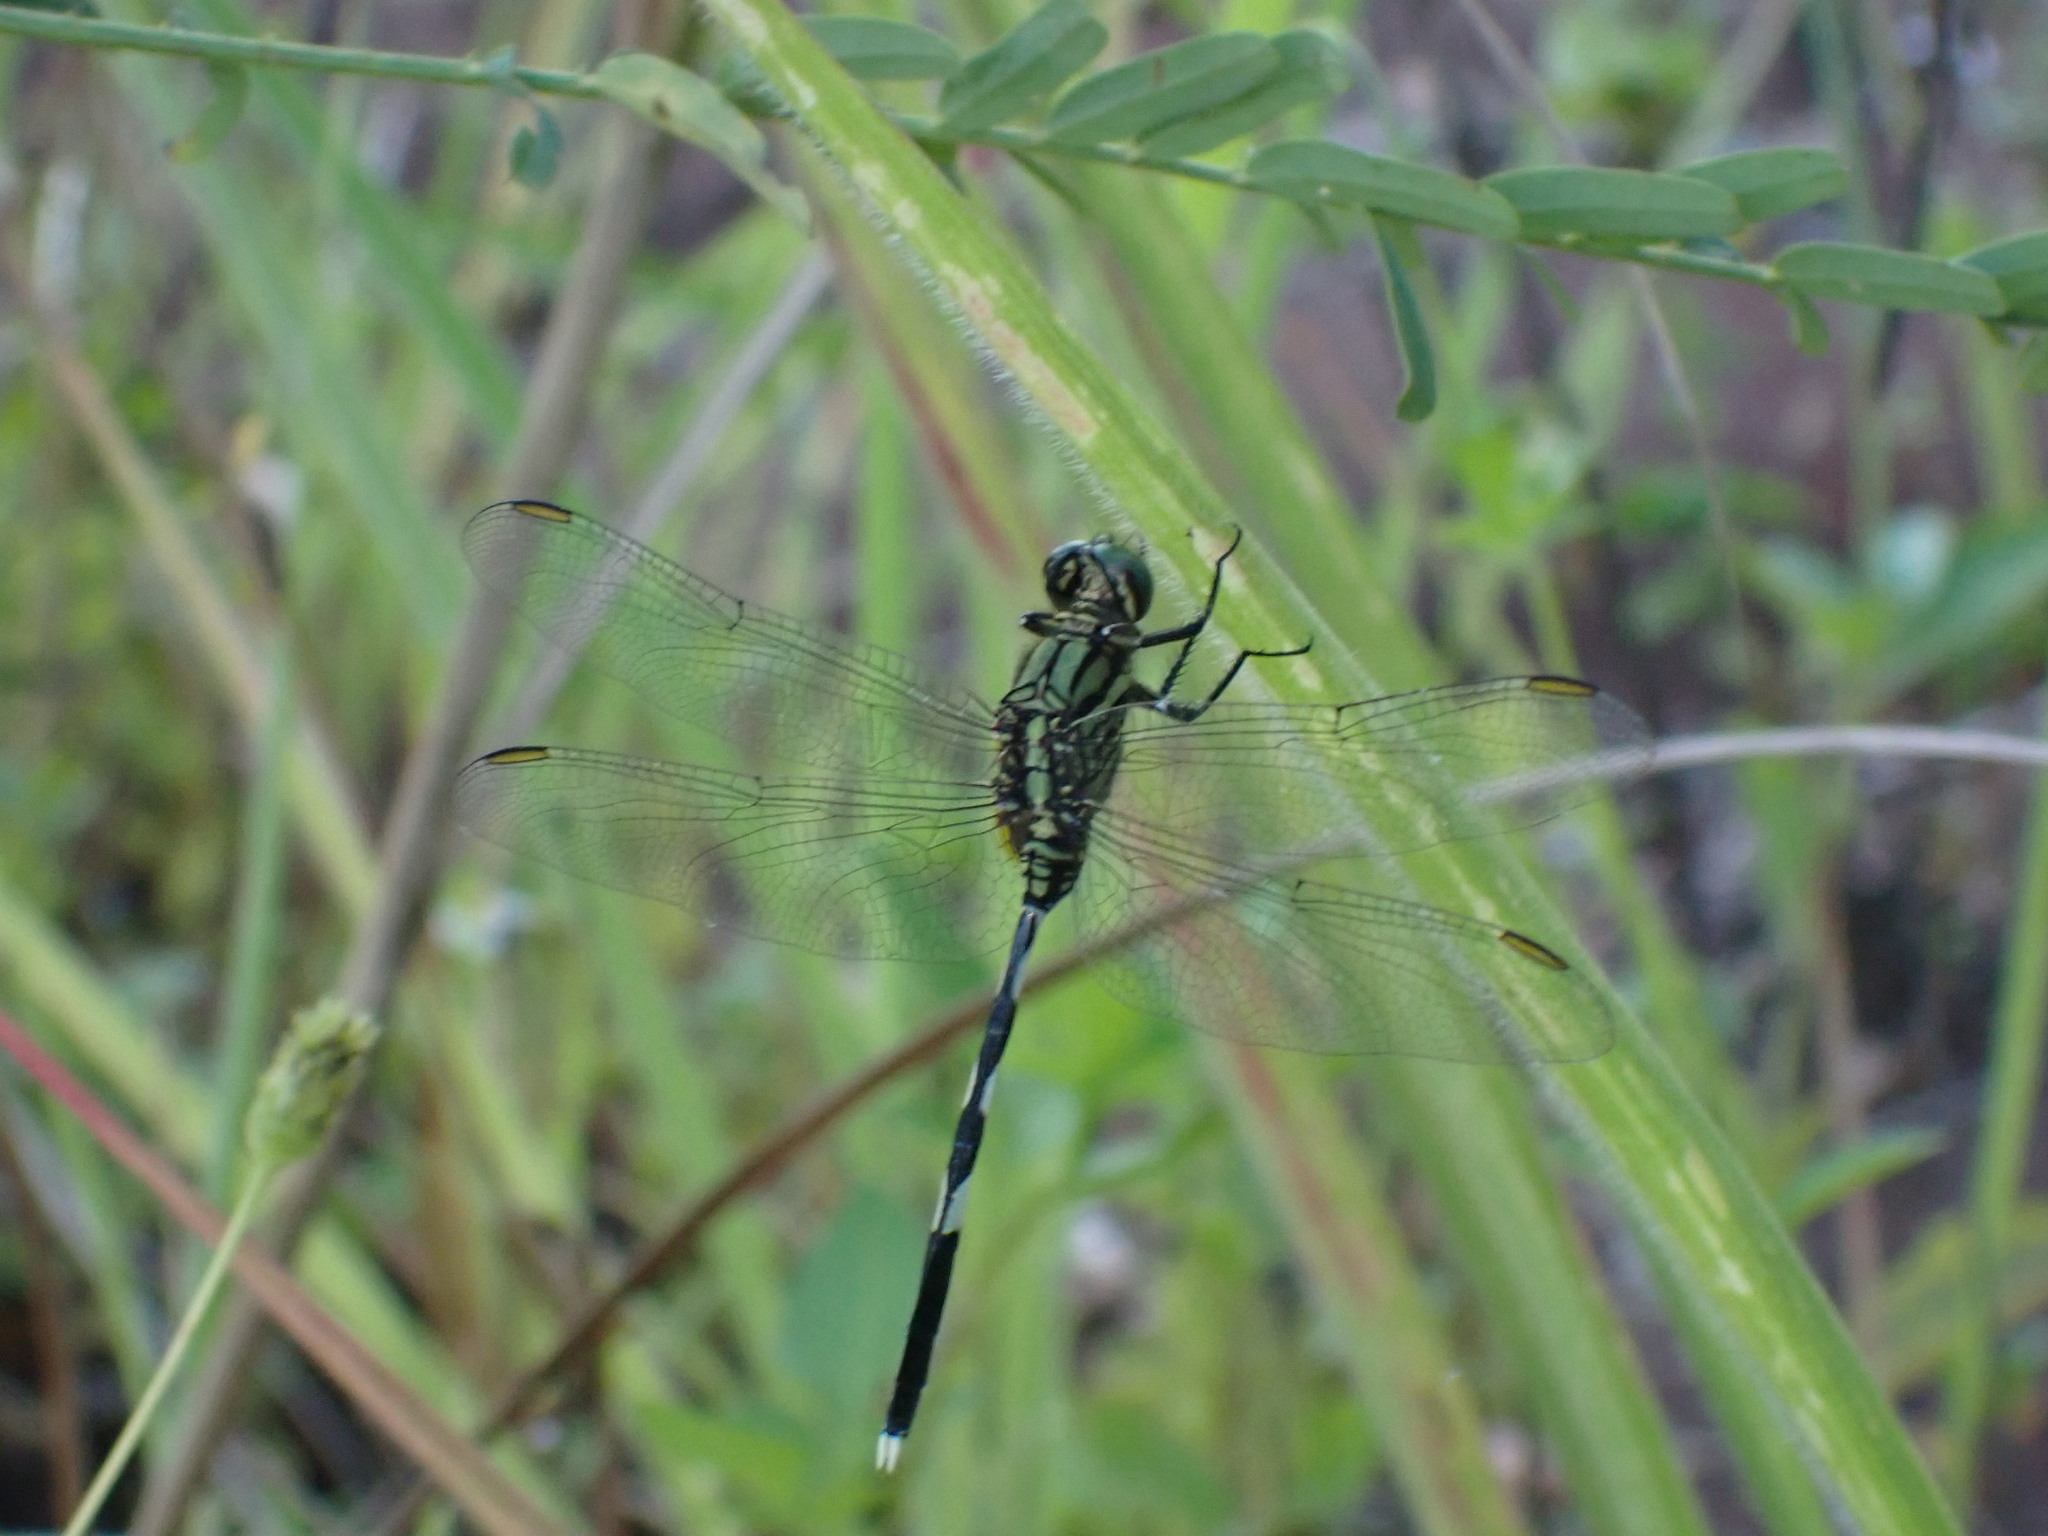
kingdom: Animalia
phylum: Arthropoda
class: Insecta
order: Odonata
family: Libellulidae
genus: Orthetrum
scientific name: Orthetrum sabina
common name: Slender skimmer
